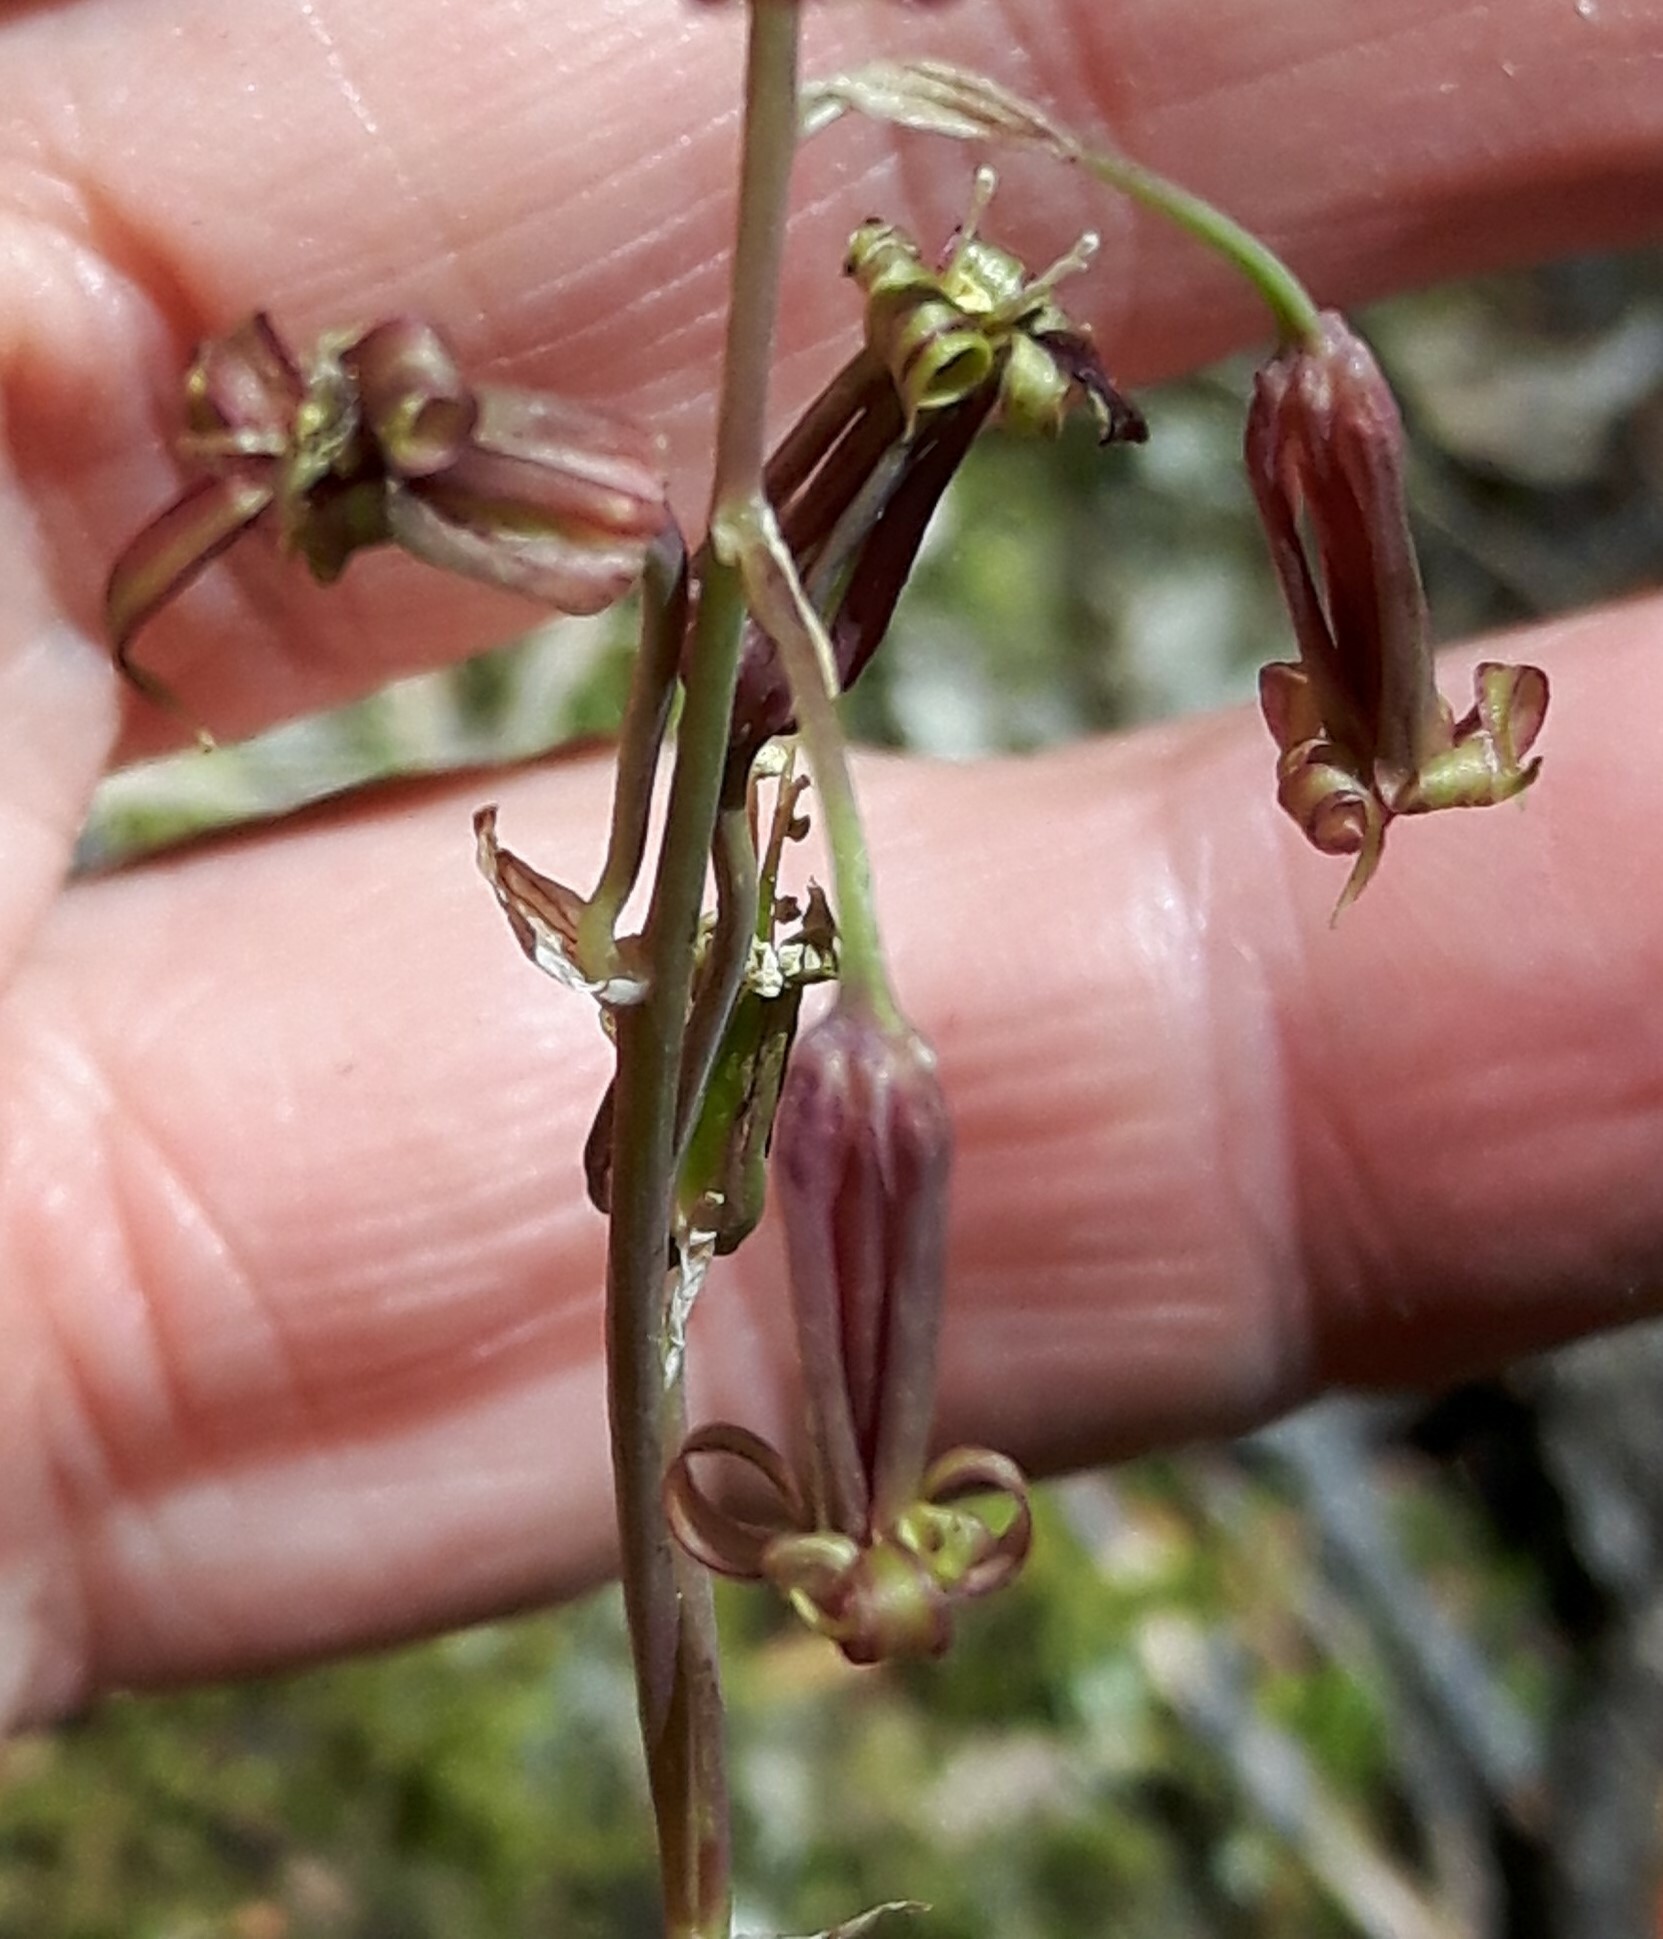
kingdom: Plantae
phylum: Tracheophyta
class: Liliopsida
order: Liliales
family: Melanthiaceae
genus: Anticlea
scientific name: Anticlea occidentalis
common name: Bronze-bells
